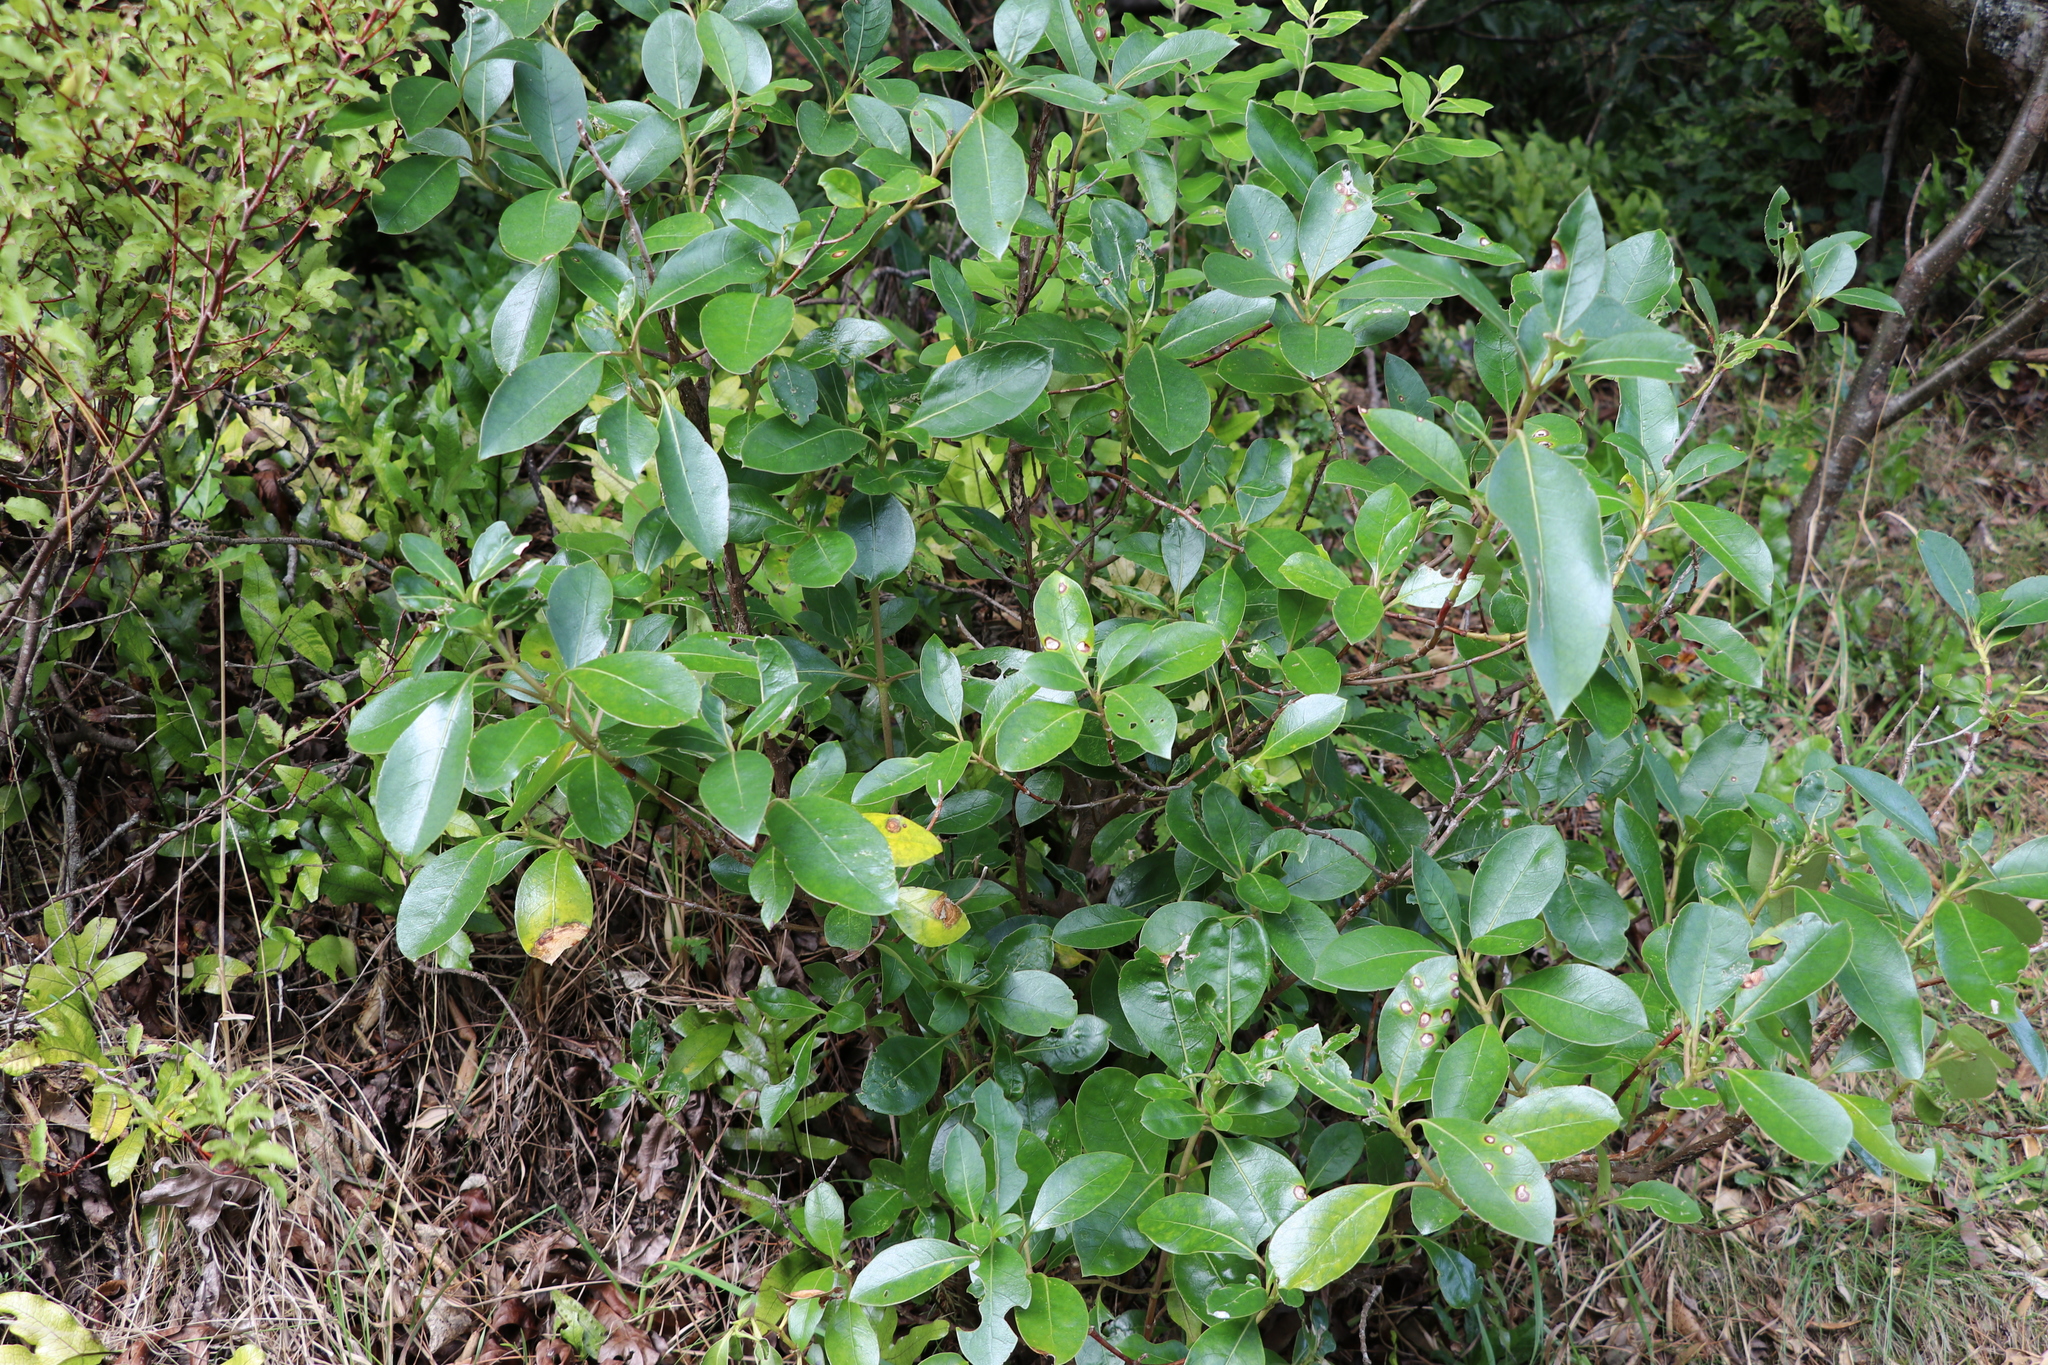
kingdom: Plantae
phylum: Tracheophyta
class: Magnoliopsida
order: Gentianales
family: Rubiaceae
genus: Coprosma
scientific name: Coprosma lucida
